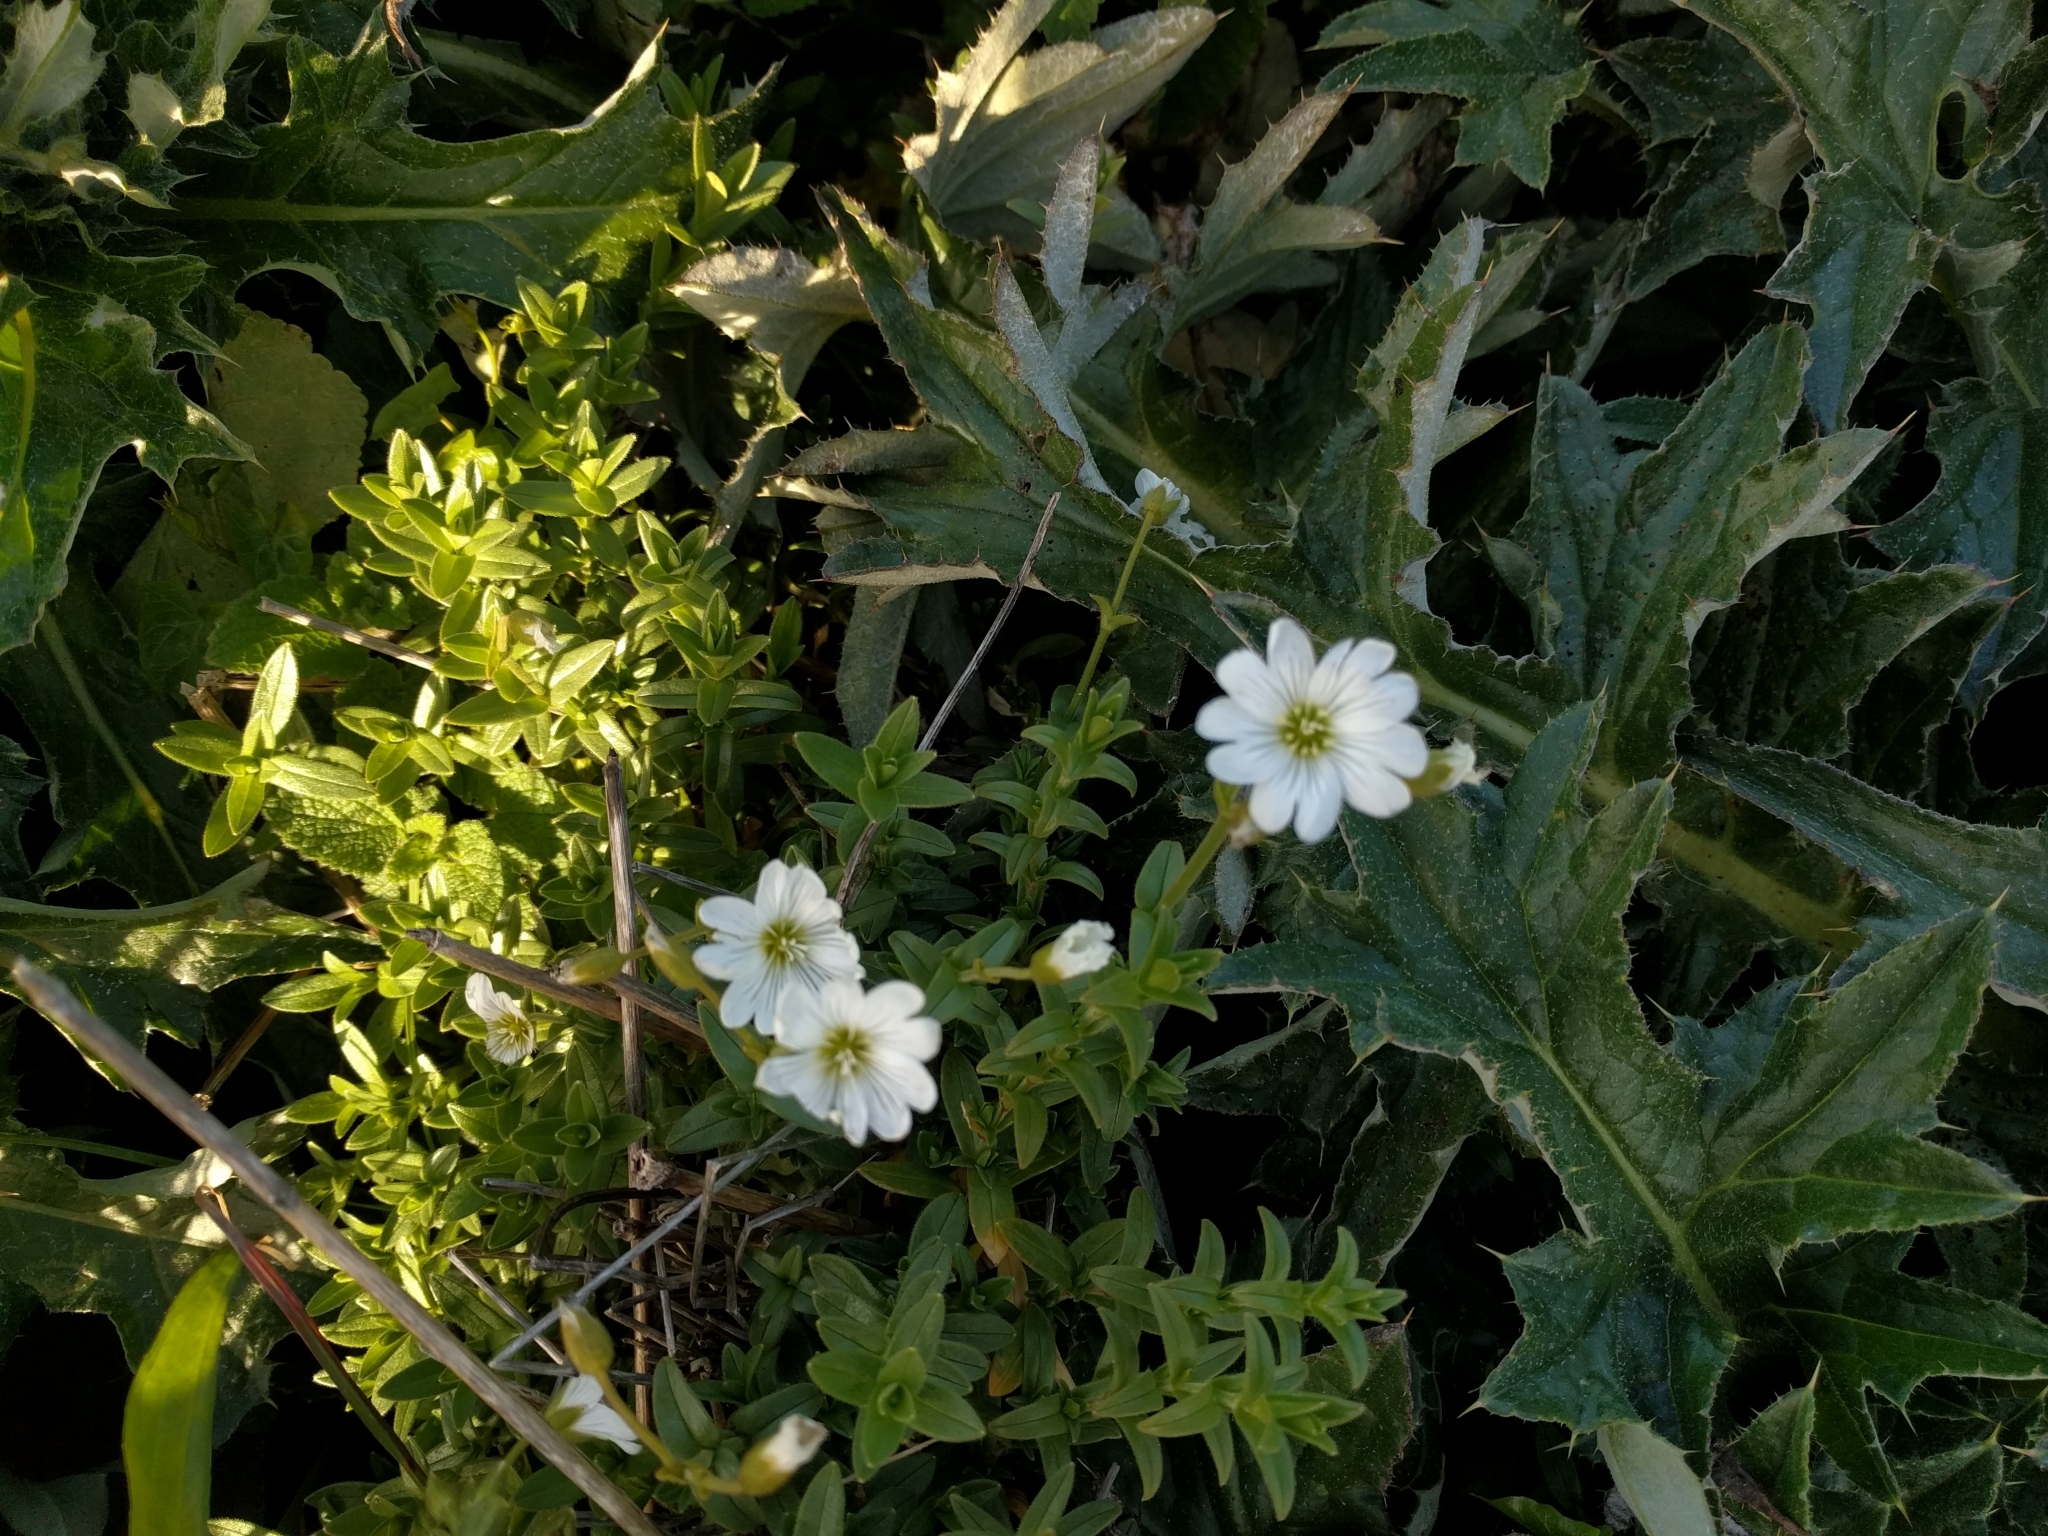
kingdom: Plantae
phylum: Tracheophyta
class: Magnoliopsida
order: Caryophyllales
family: Caryophyllaceae
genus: Cerastium
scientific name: Cerastium arvense
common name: Field mouse-ear
